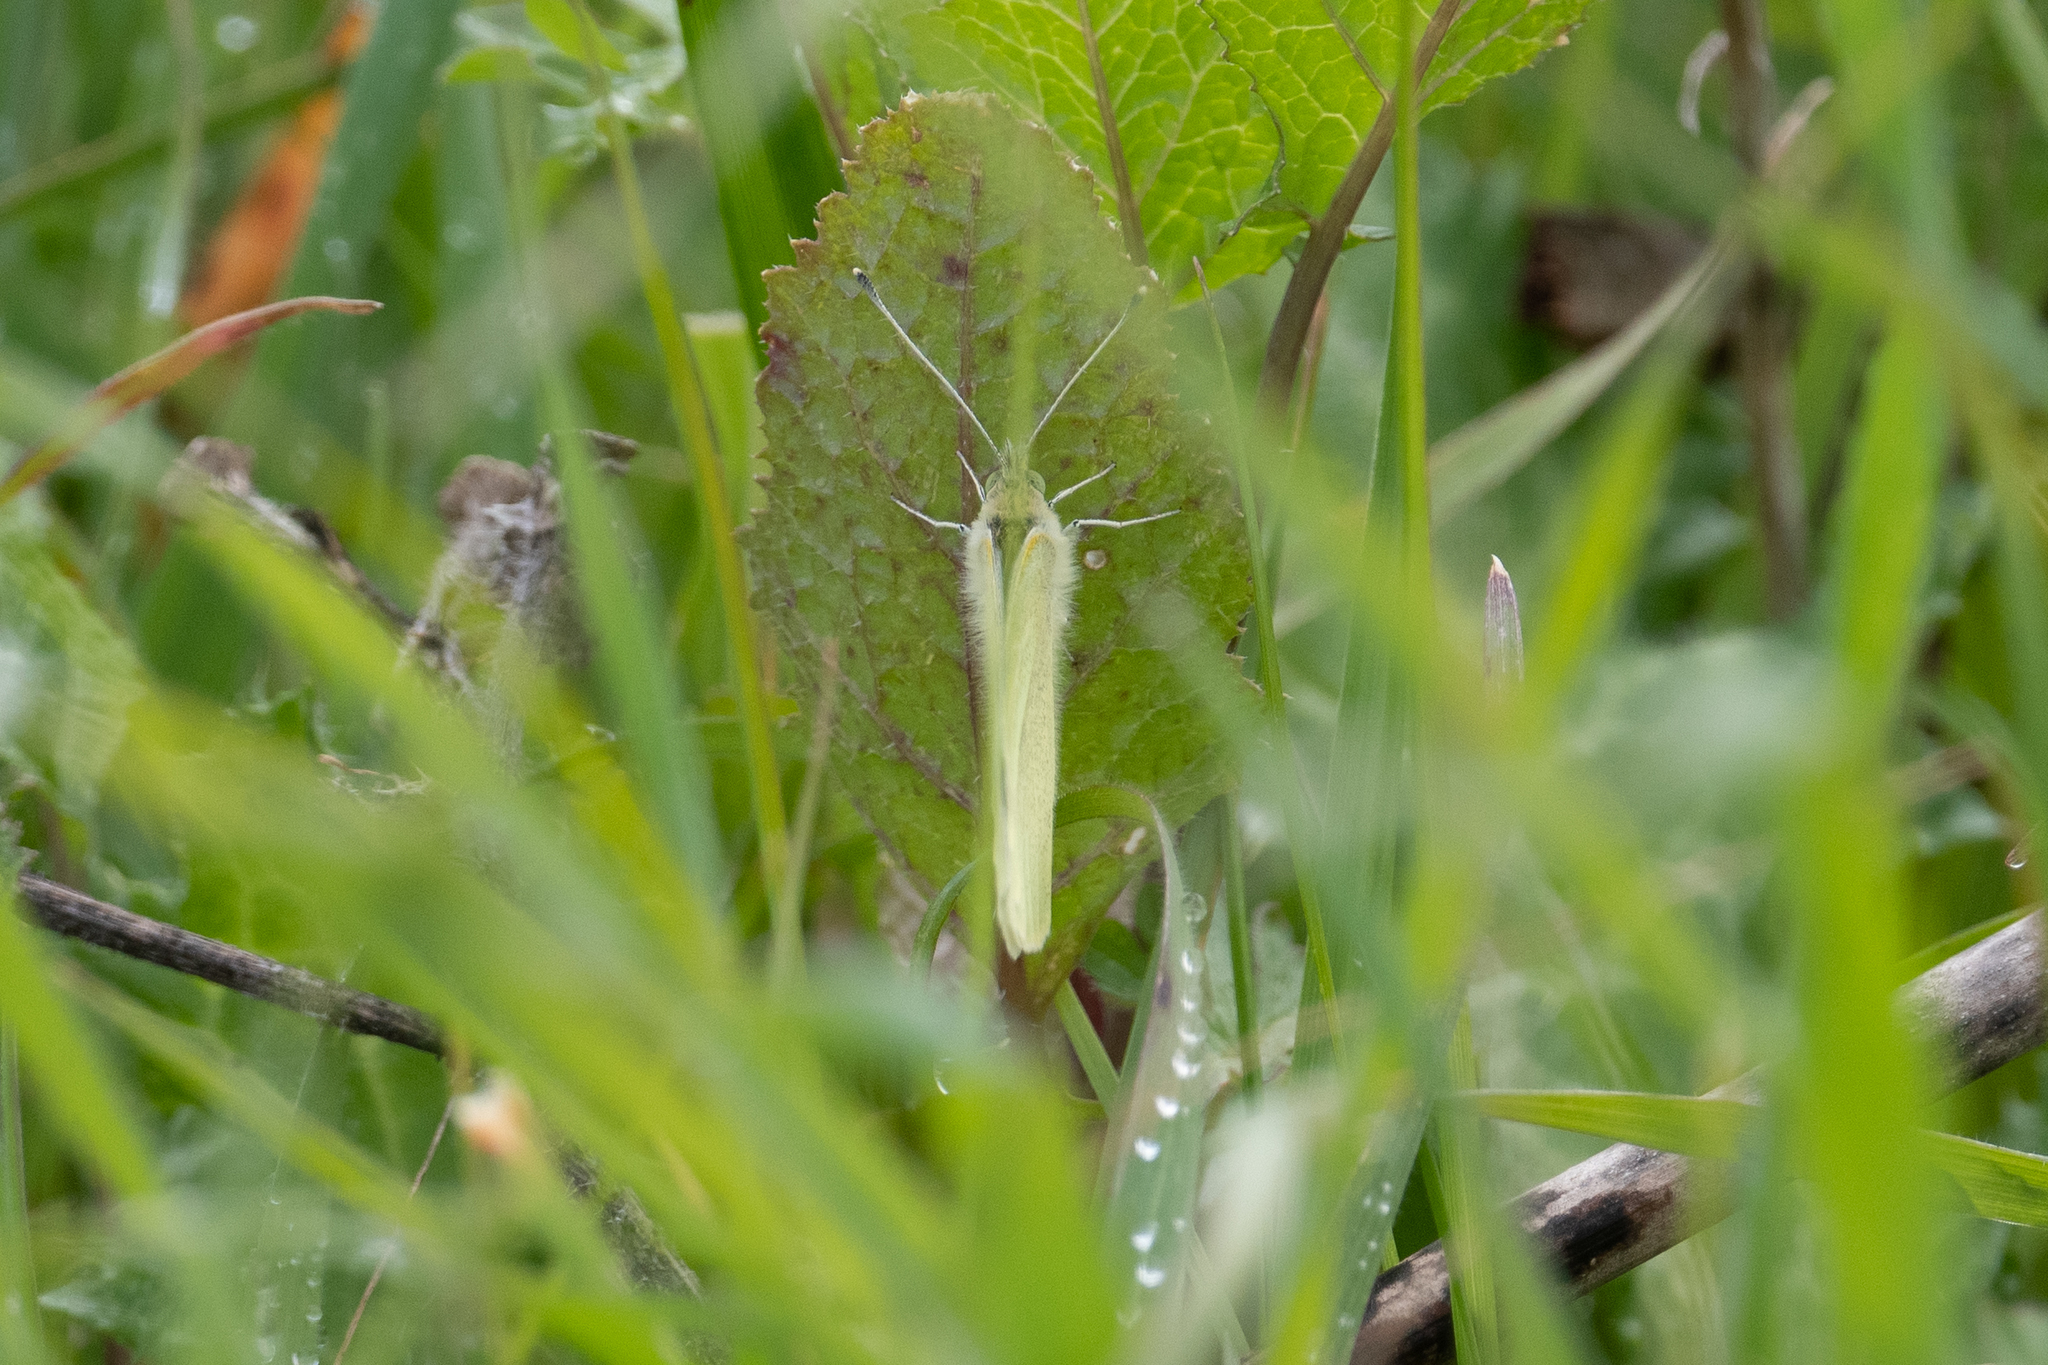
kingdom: Animalia
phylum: Arthropoda
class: Insecta
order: Lepidoptera
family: Pieridae
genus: Pieris
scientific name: Pieris rapae
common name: Small white
